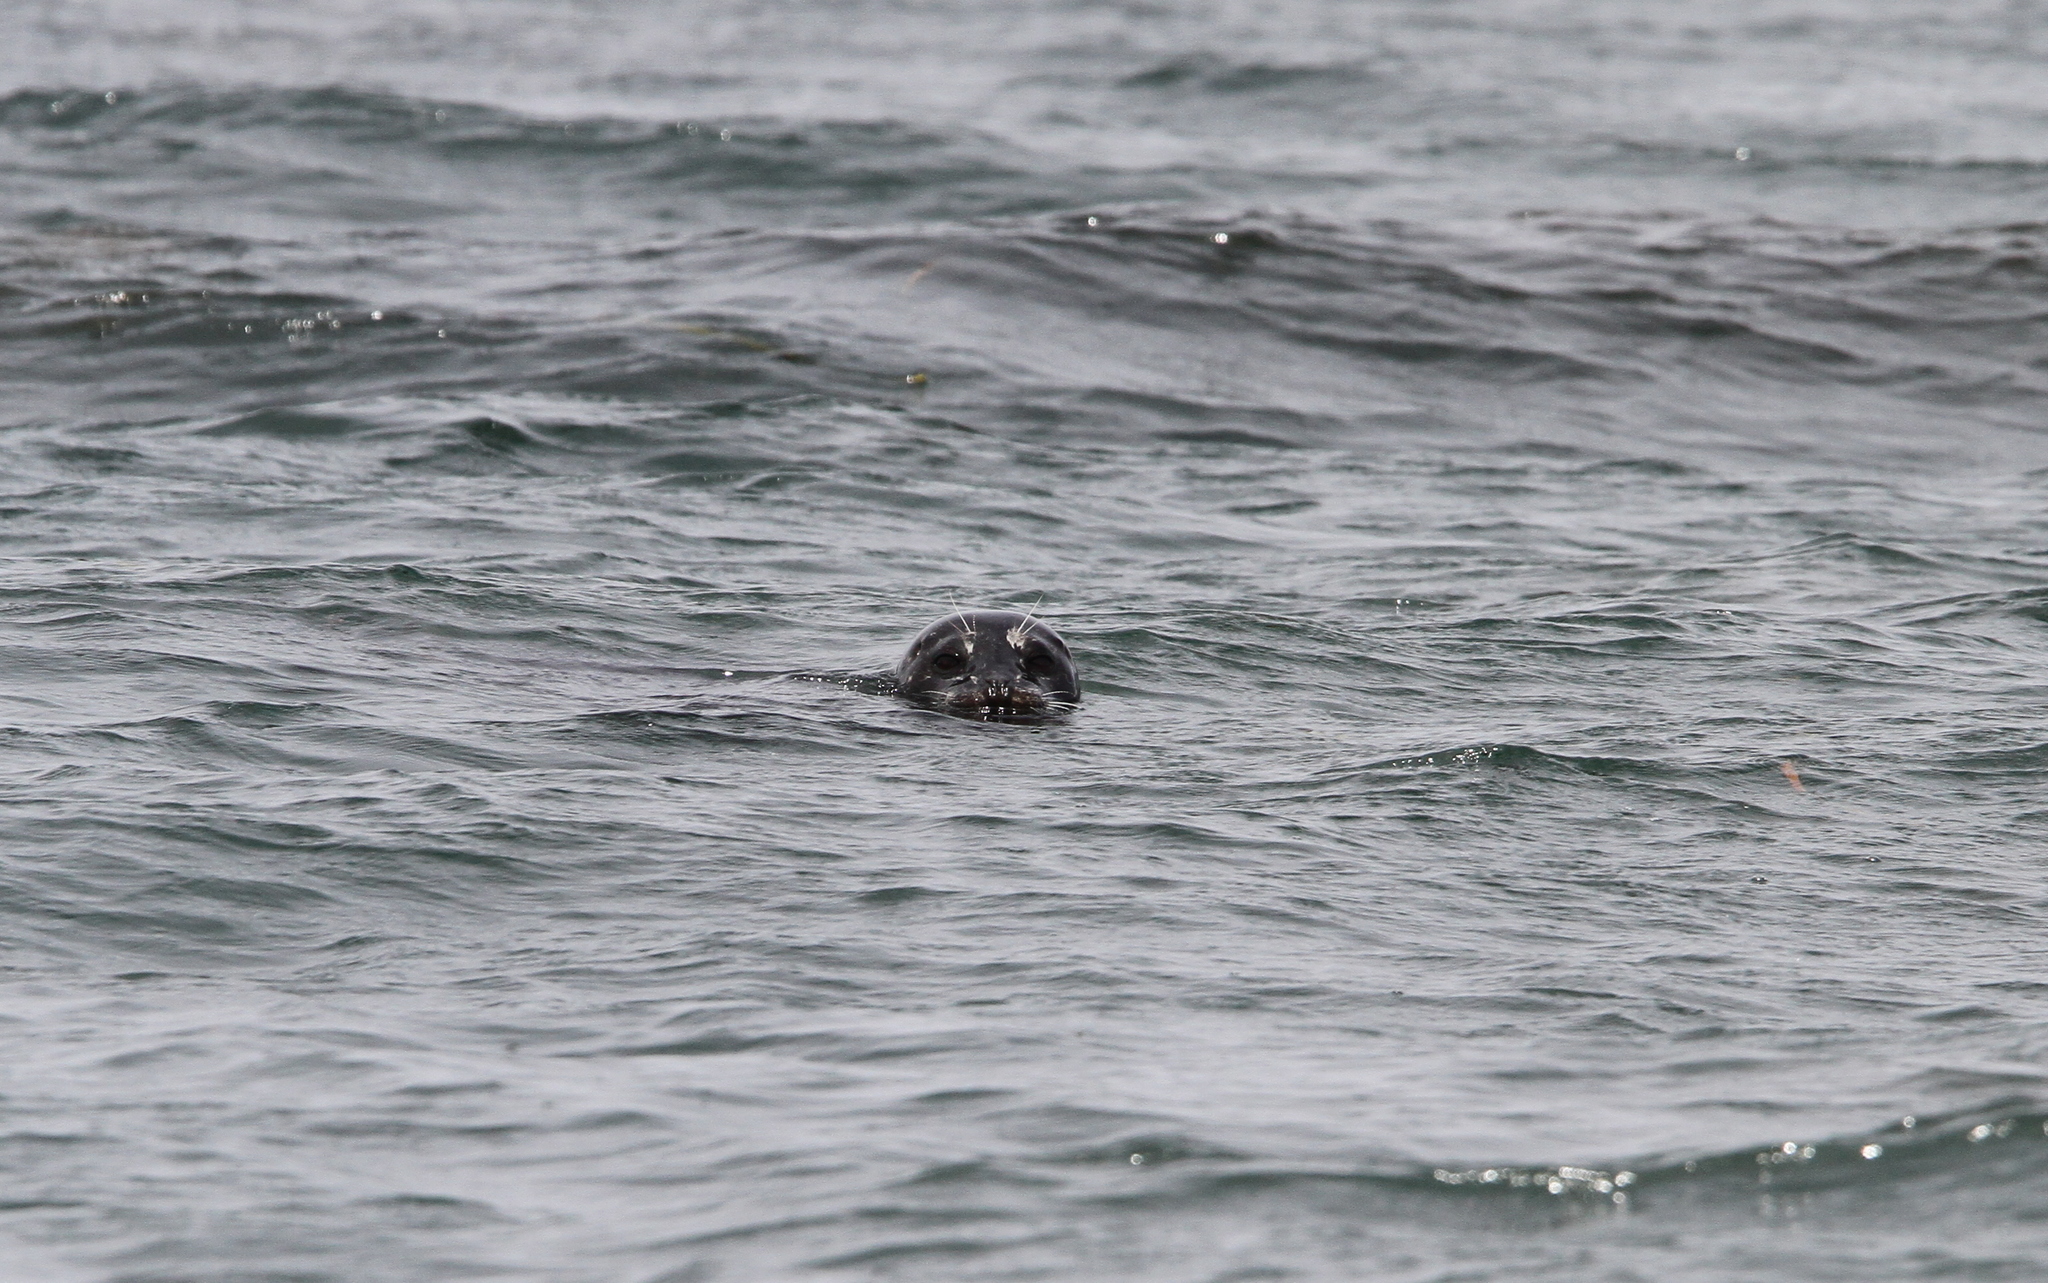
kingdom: Animalia
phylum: Chordata
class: Mammalia
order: Carnivora
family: Phocidae
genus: Phoca
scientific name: Phoca vitulina
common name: Harbor seal
